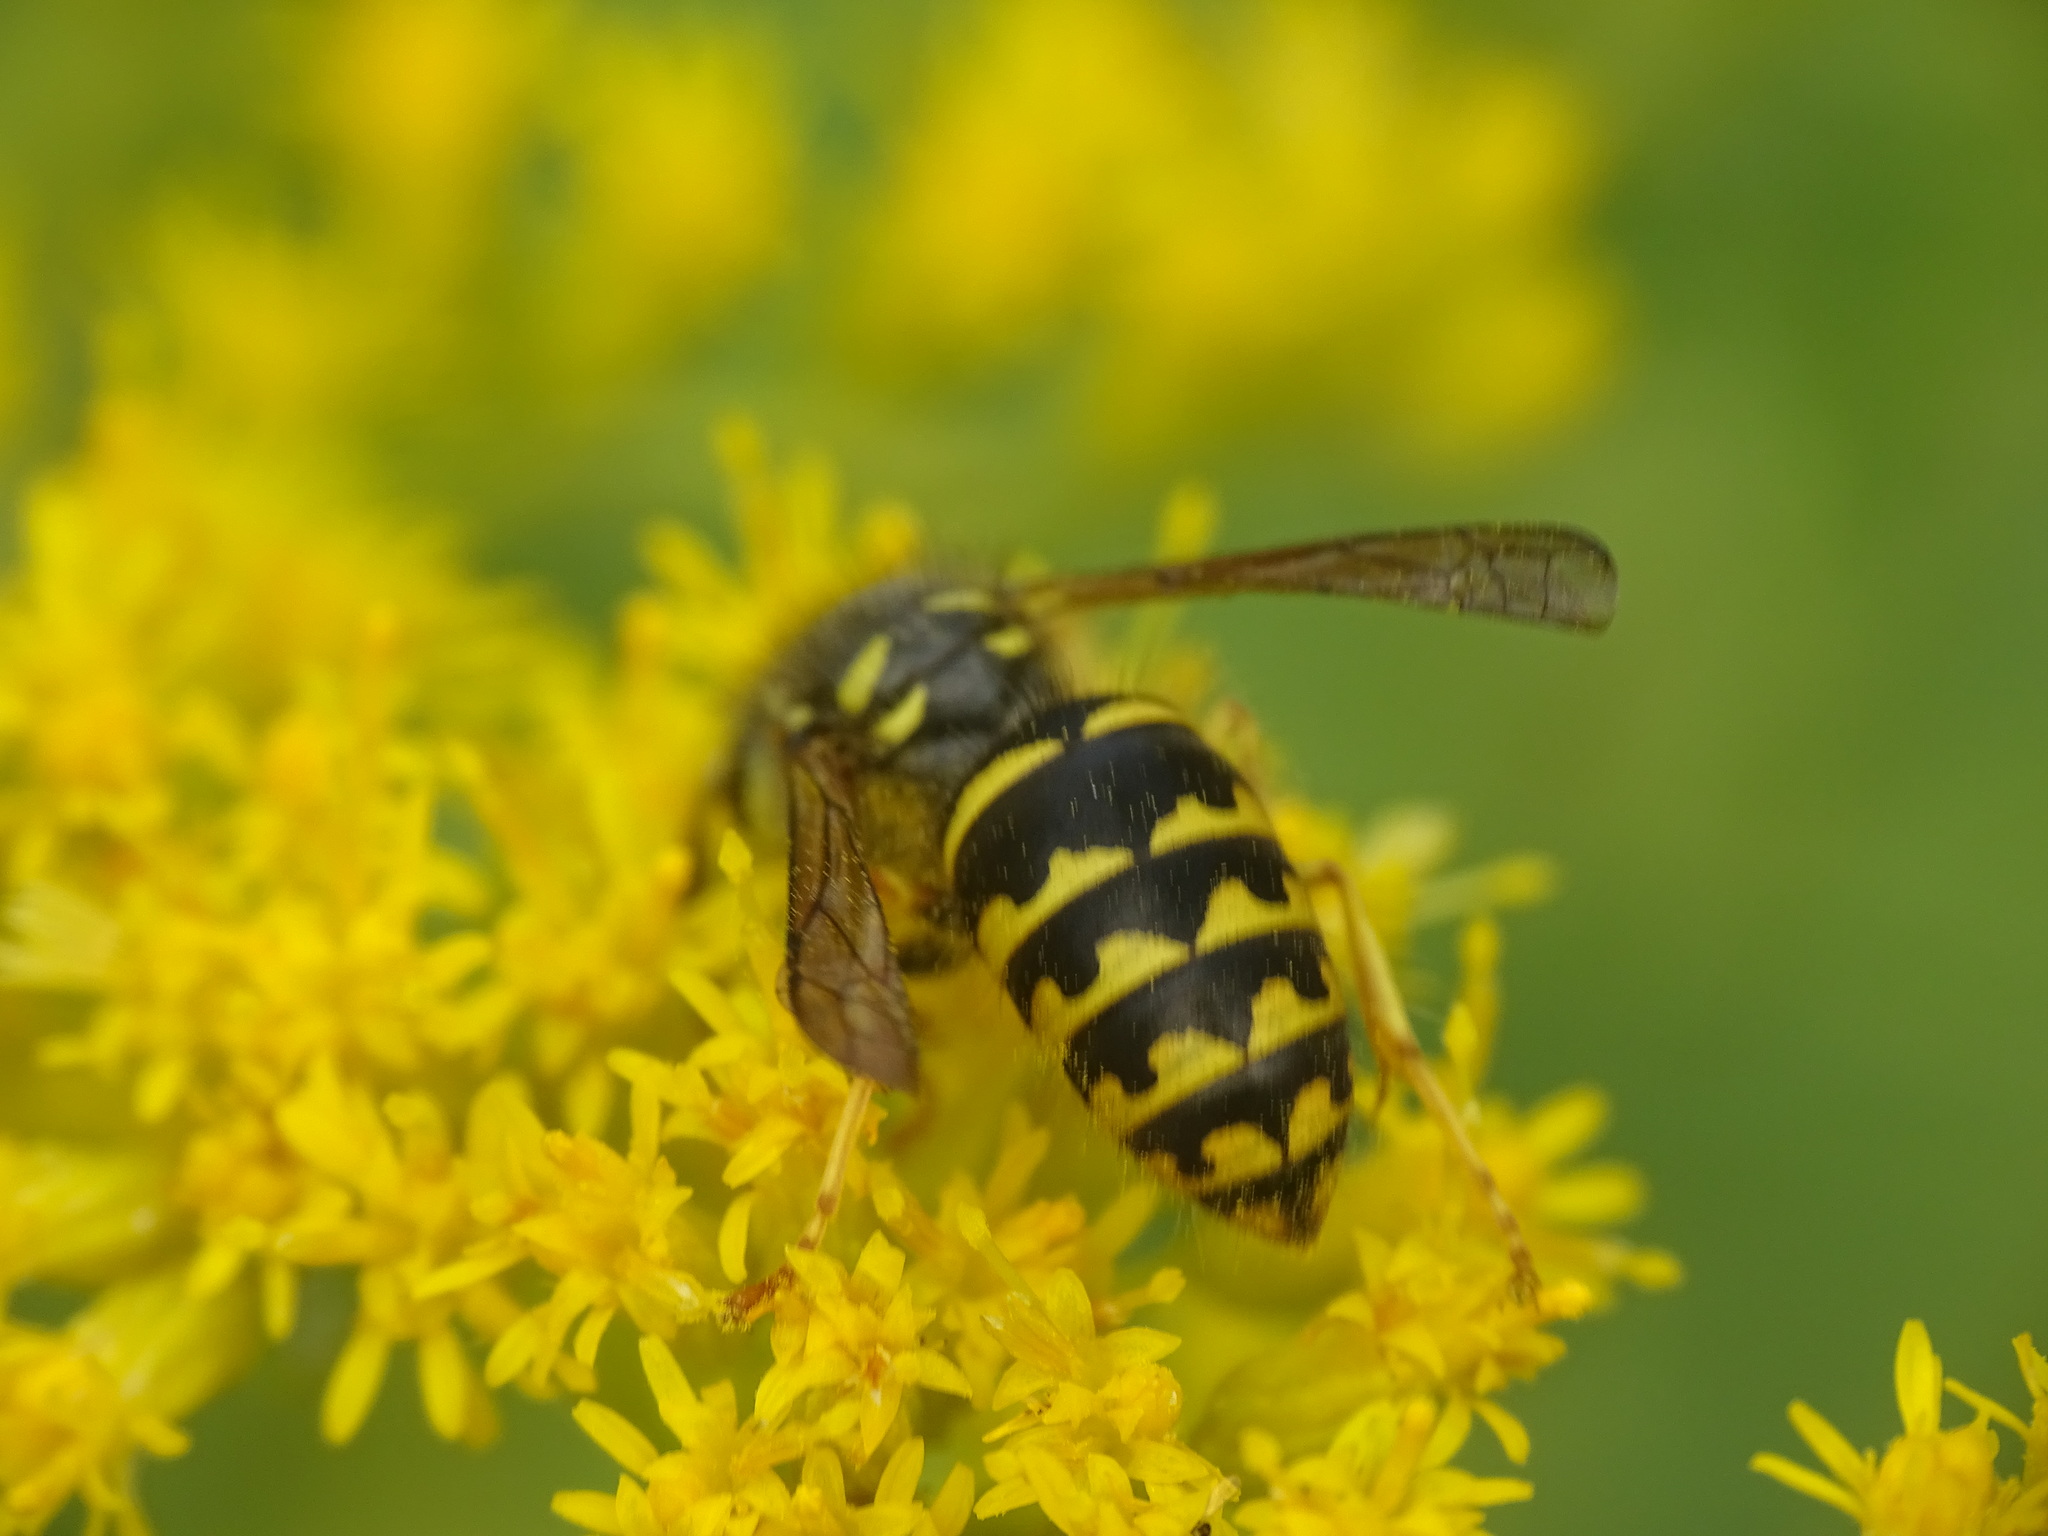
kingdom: Animalia
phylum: Arthropoda
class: Insecta
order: Hymenoptera
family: Vespidae
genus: Dolichovespula
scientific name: Dolichovespula arenaria
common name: Aerial yellowjacket
